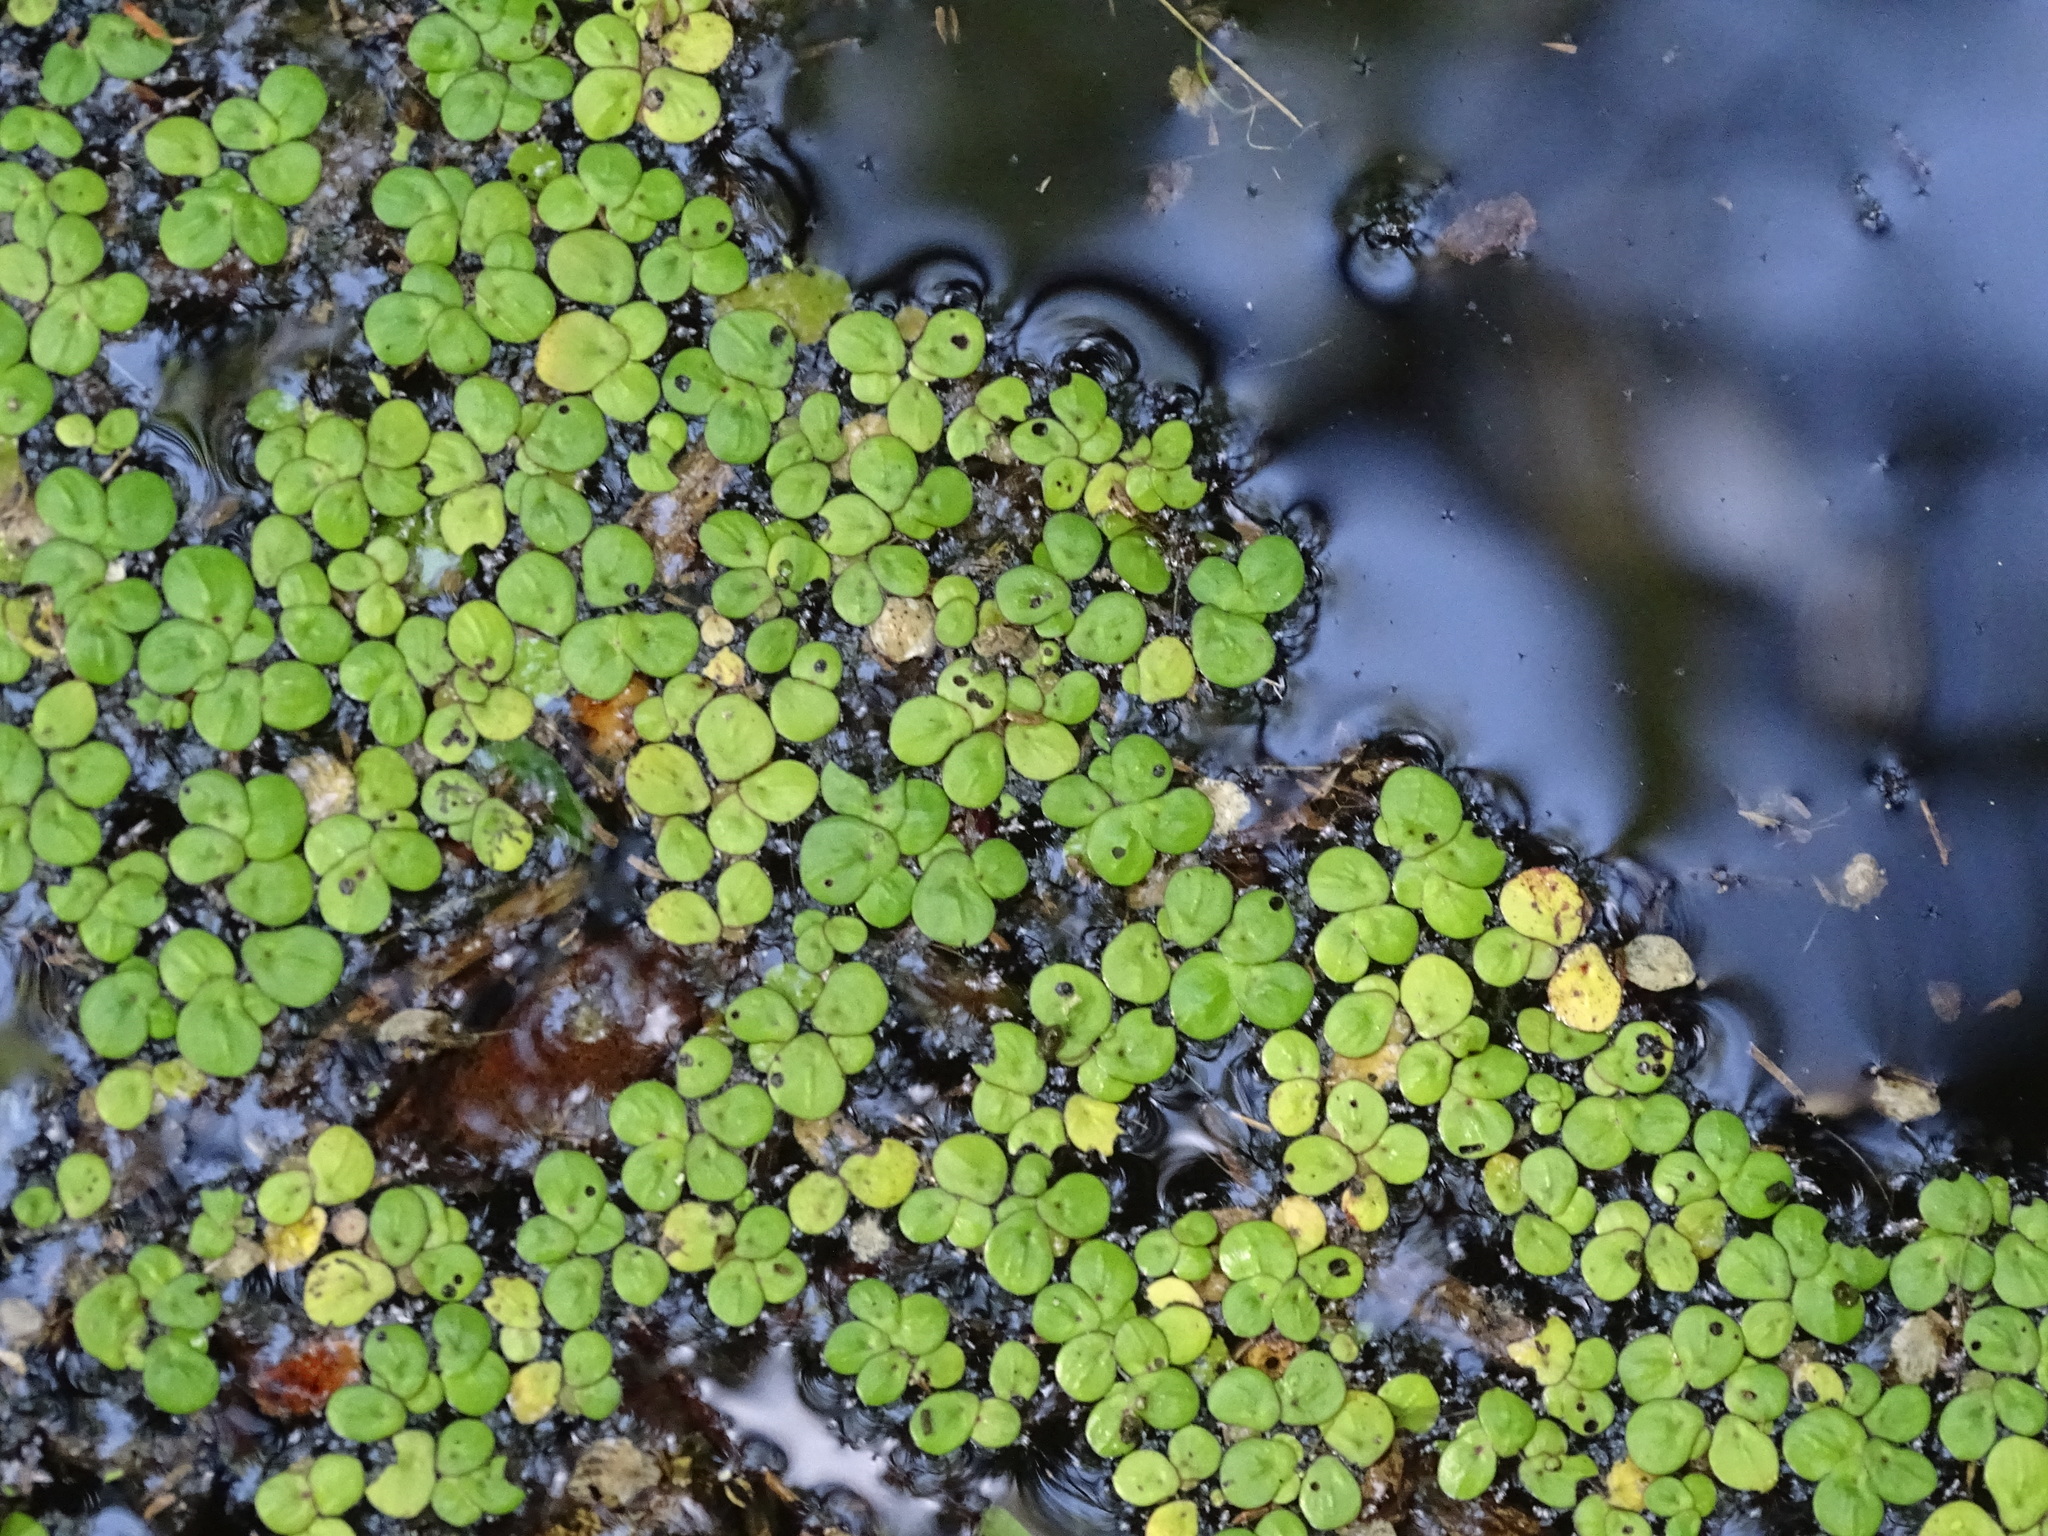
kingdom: Plantae
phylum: Tracheophyta
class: Polypodiopsida
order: Salviniales
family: Salviniaceae
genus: Salvinia
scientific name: Salvinia minima
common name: Water spangles
